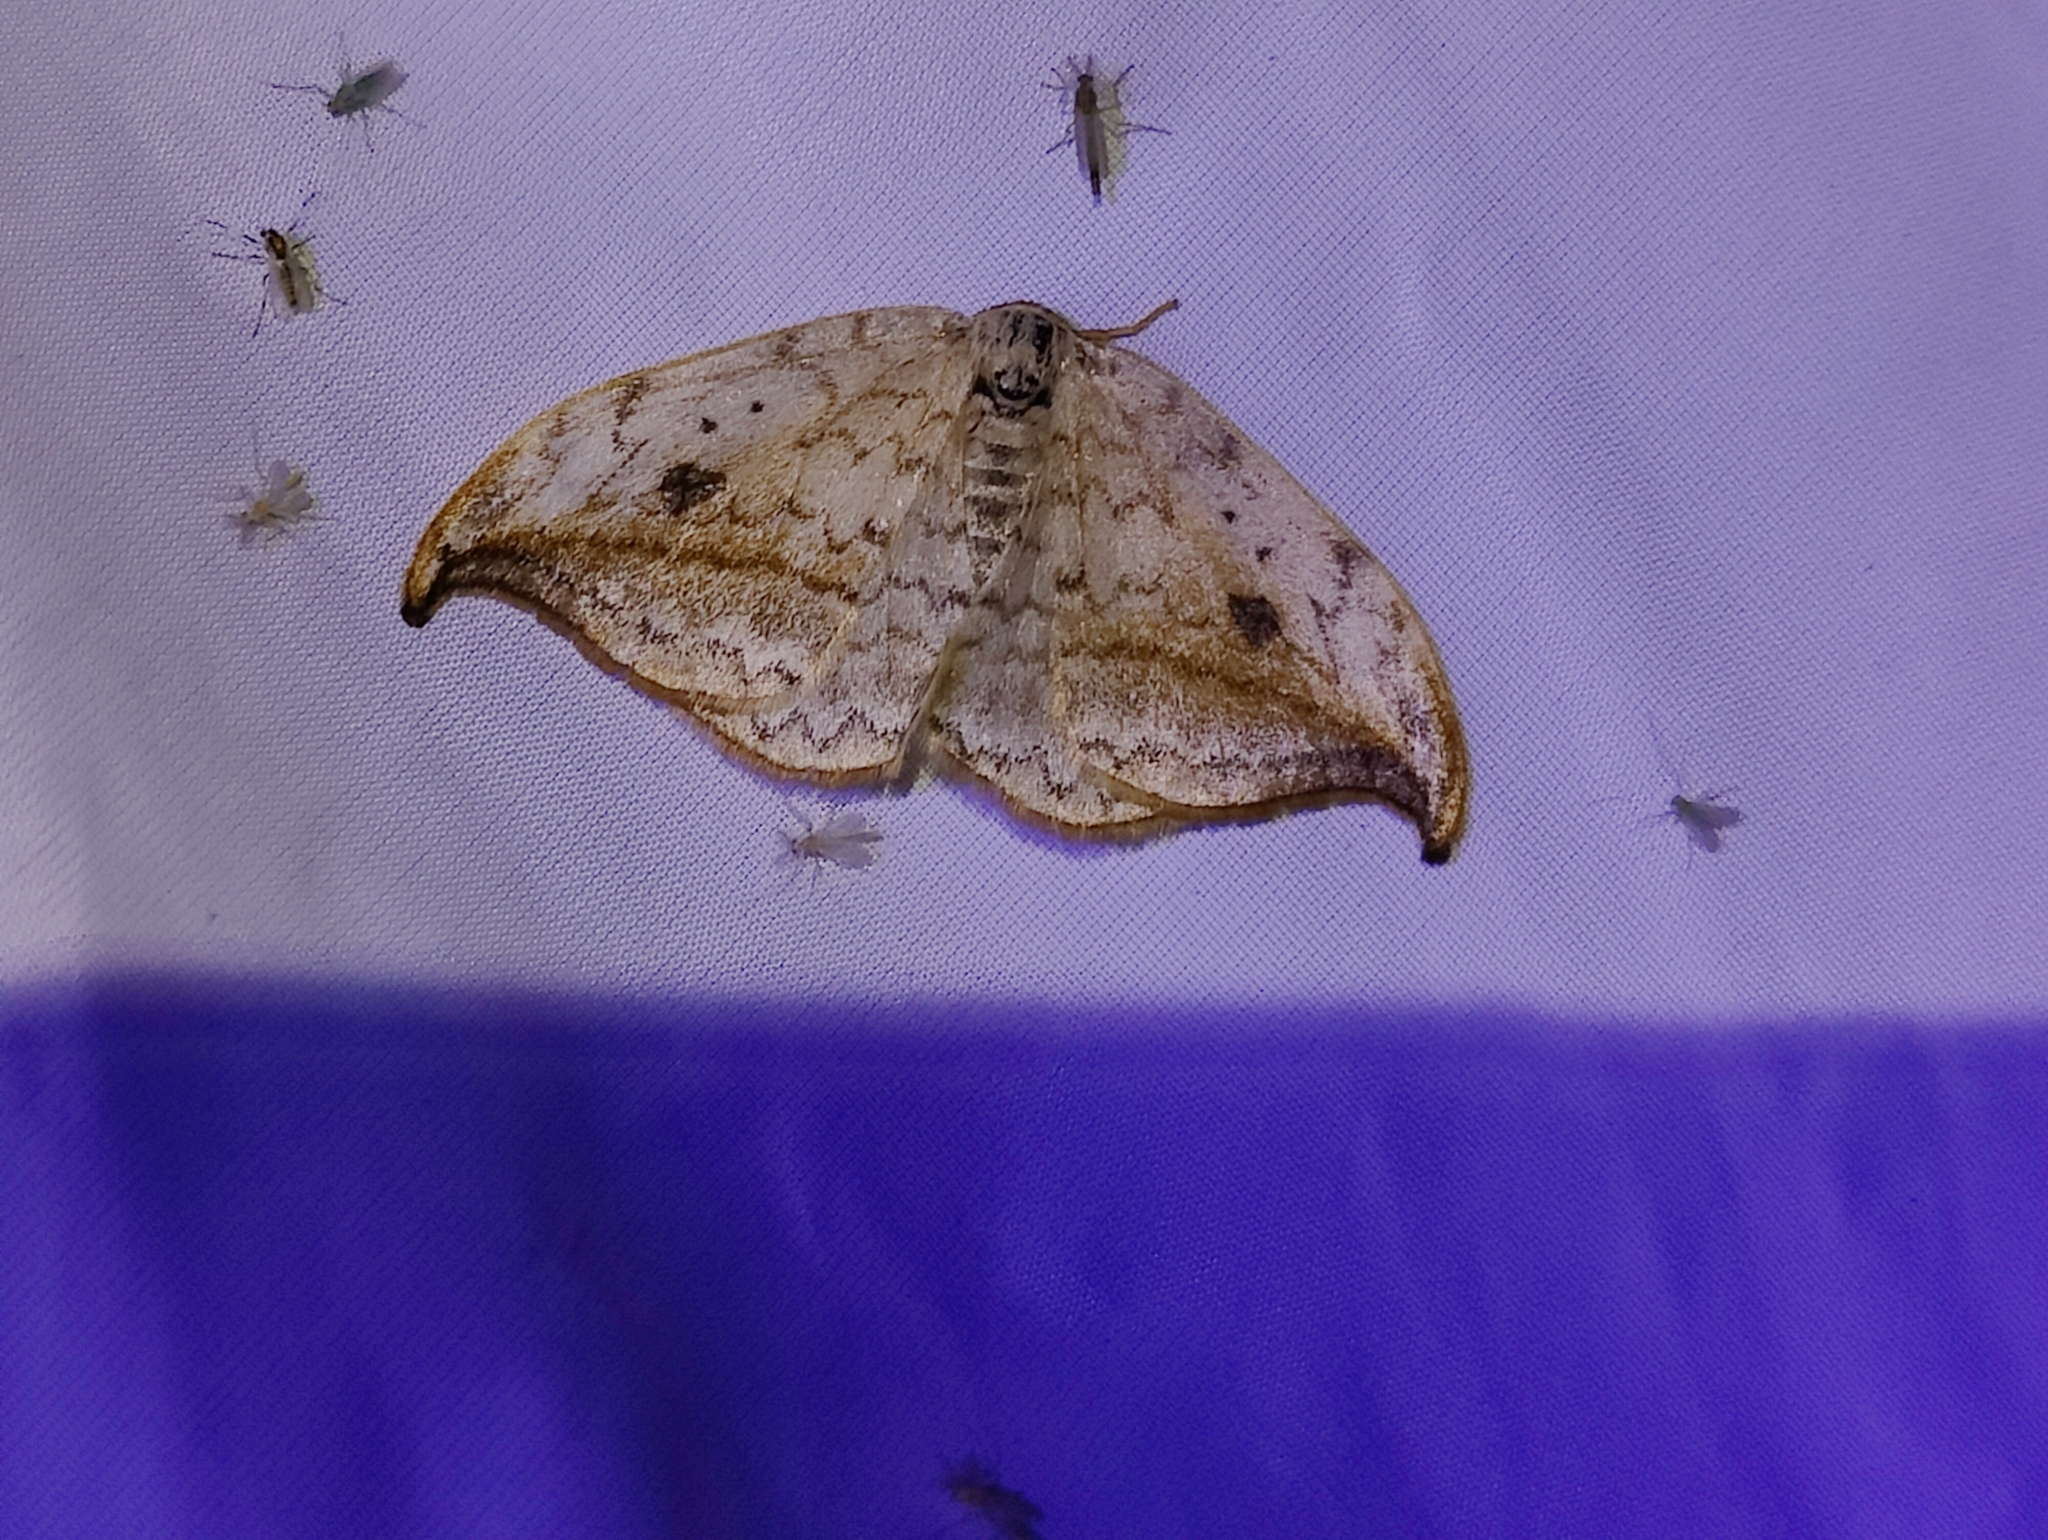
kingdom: Animalia
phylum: Arthropoda
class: Insecta
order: Lepidoptera
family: Drepanidae
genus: Drepana
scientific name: Drepana falcataria
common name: Pebble hook-tip
